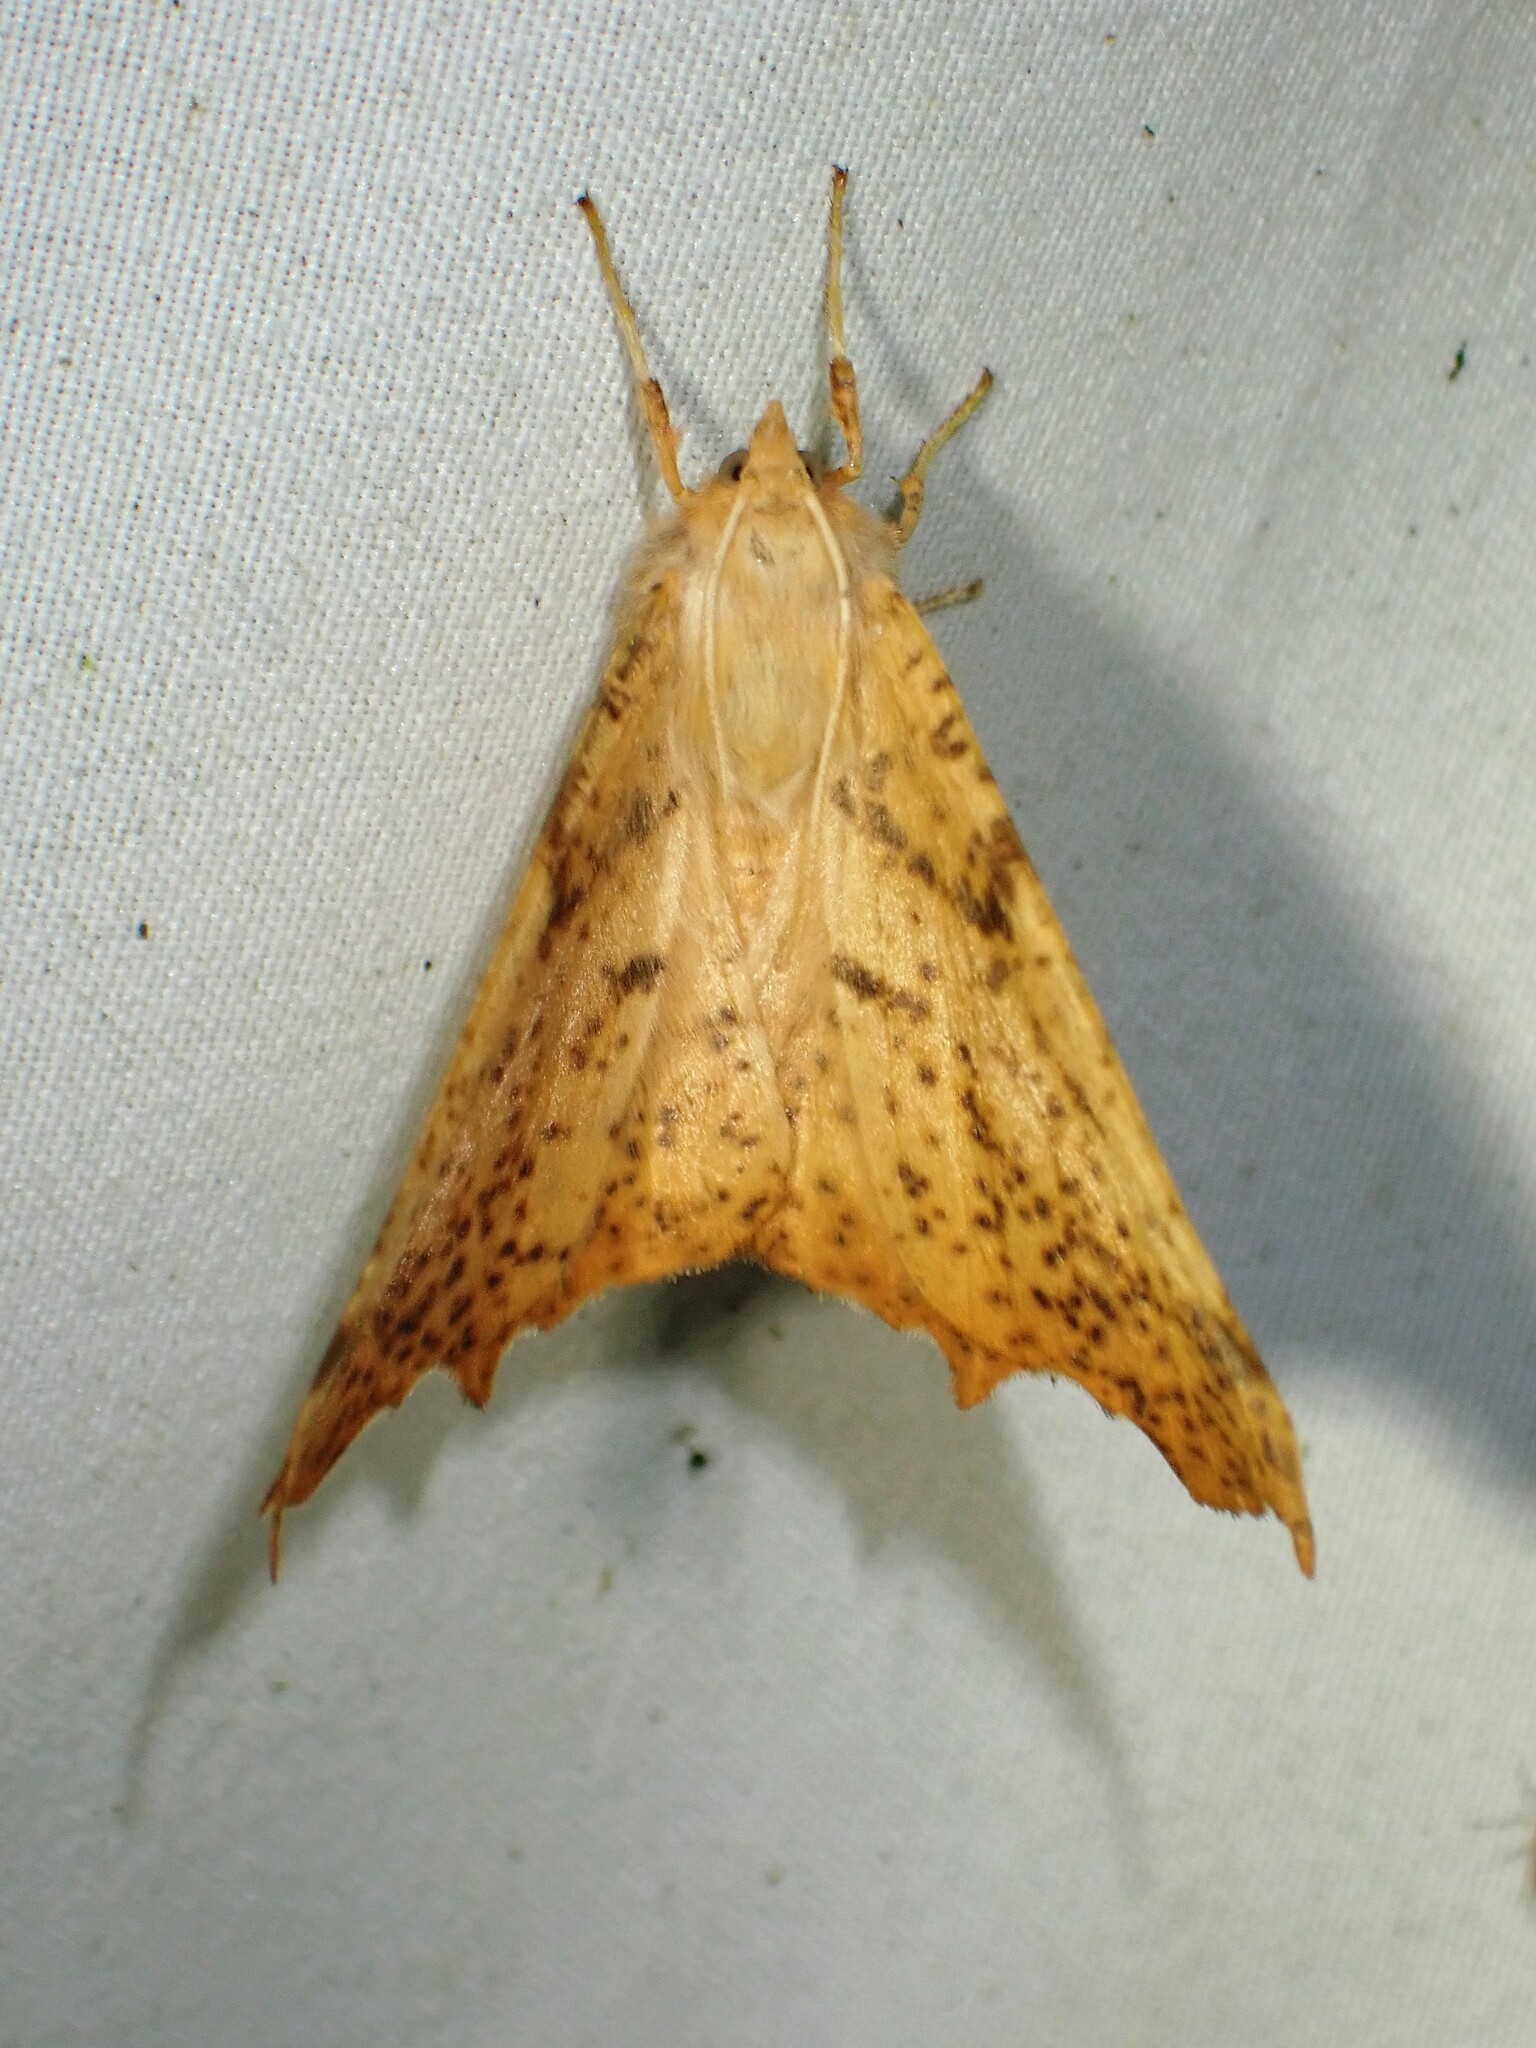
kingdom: Animalia
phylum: Arthropoda
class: Insecta
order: Lepidoptera
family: Geometridae
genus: Ennomos
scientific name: Ennomos magnaria
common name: Maple spanworm
